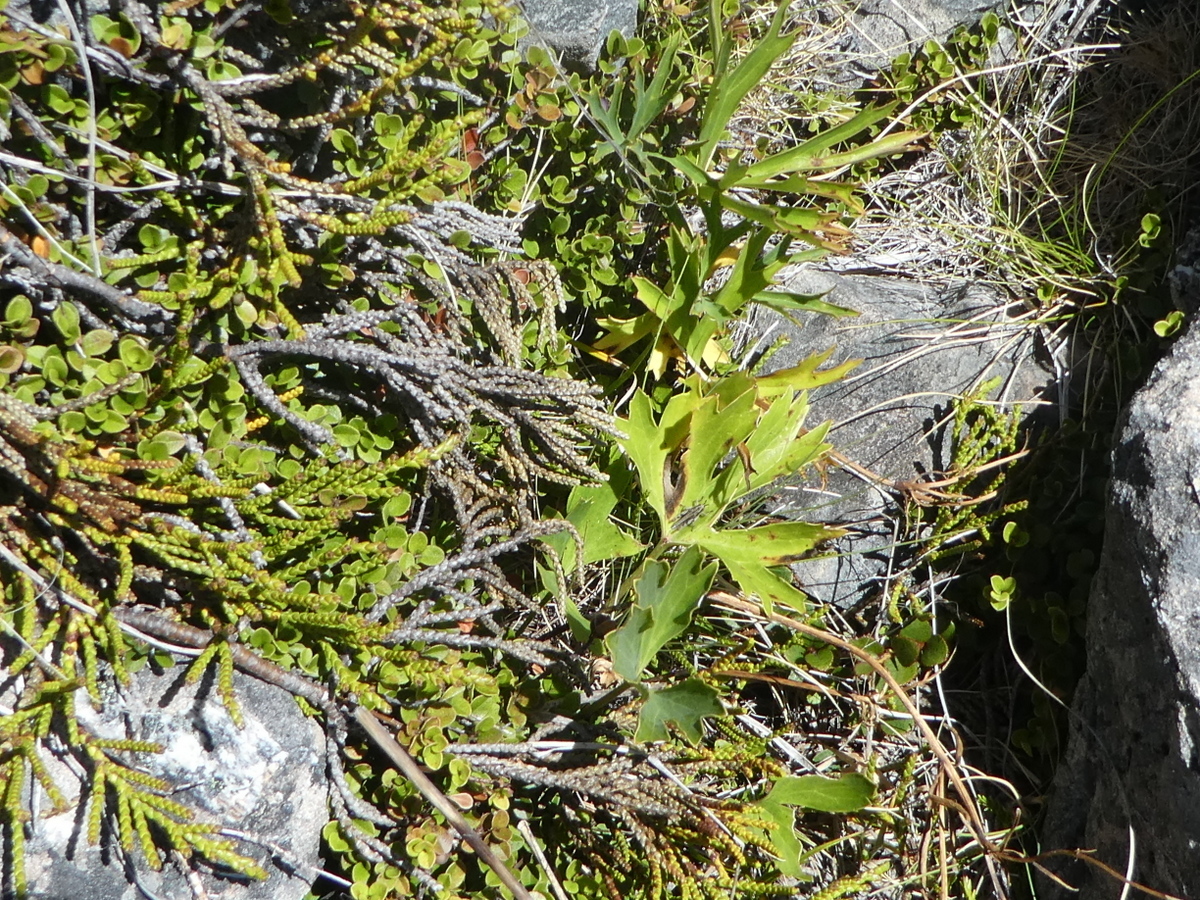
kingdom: Plantae
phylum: Tracheophyta
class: Magnoliopsida
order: Ranunculales
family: Ranunculaceae
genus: Ranunculus
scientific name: Ranunculus verticillatus
